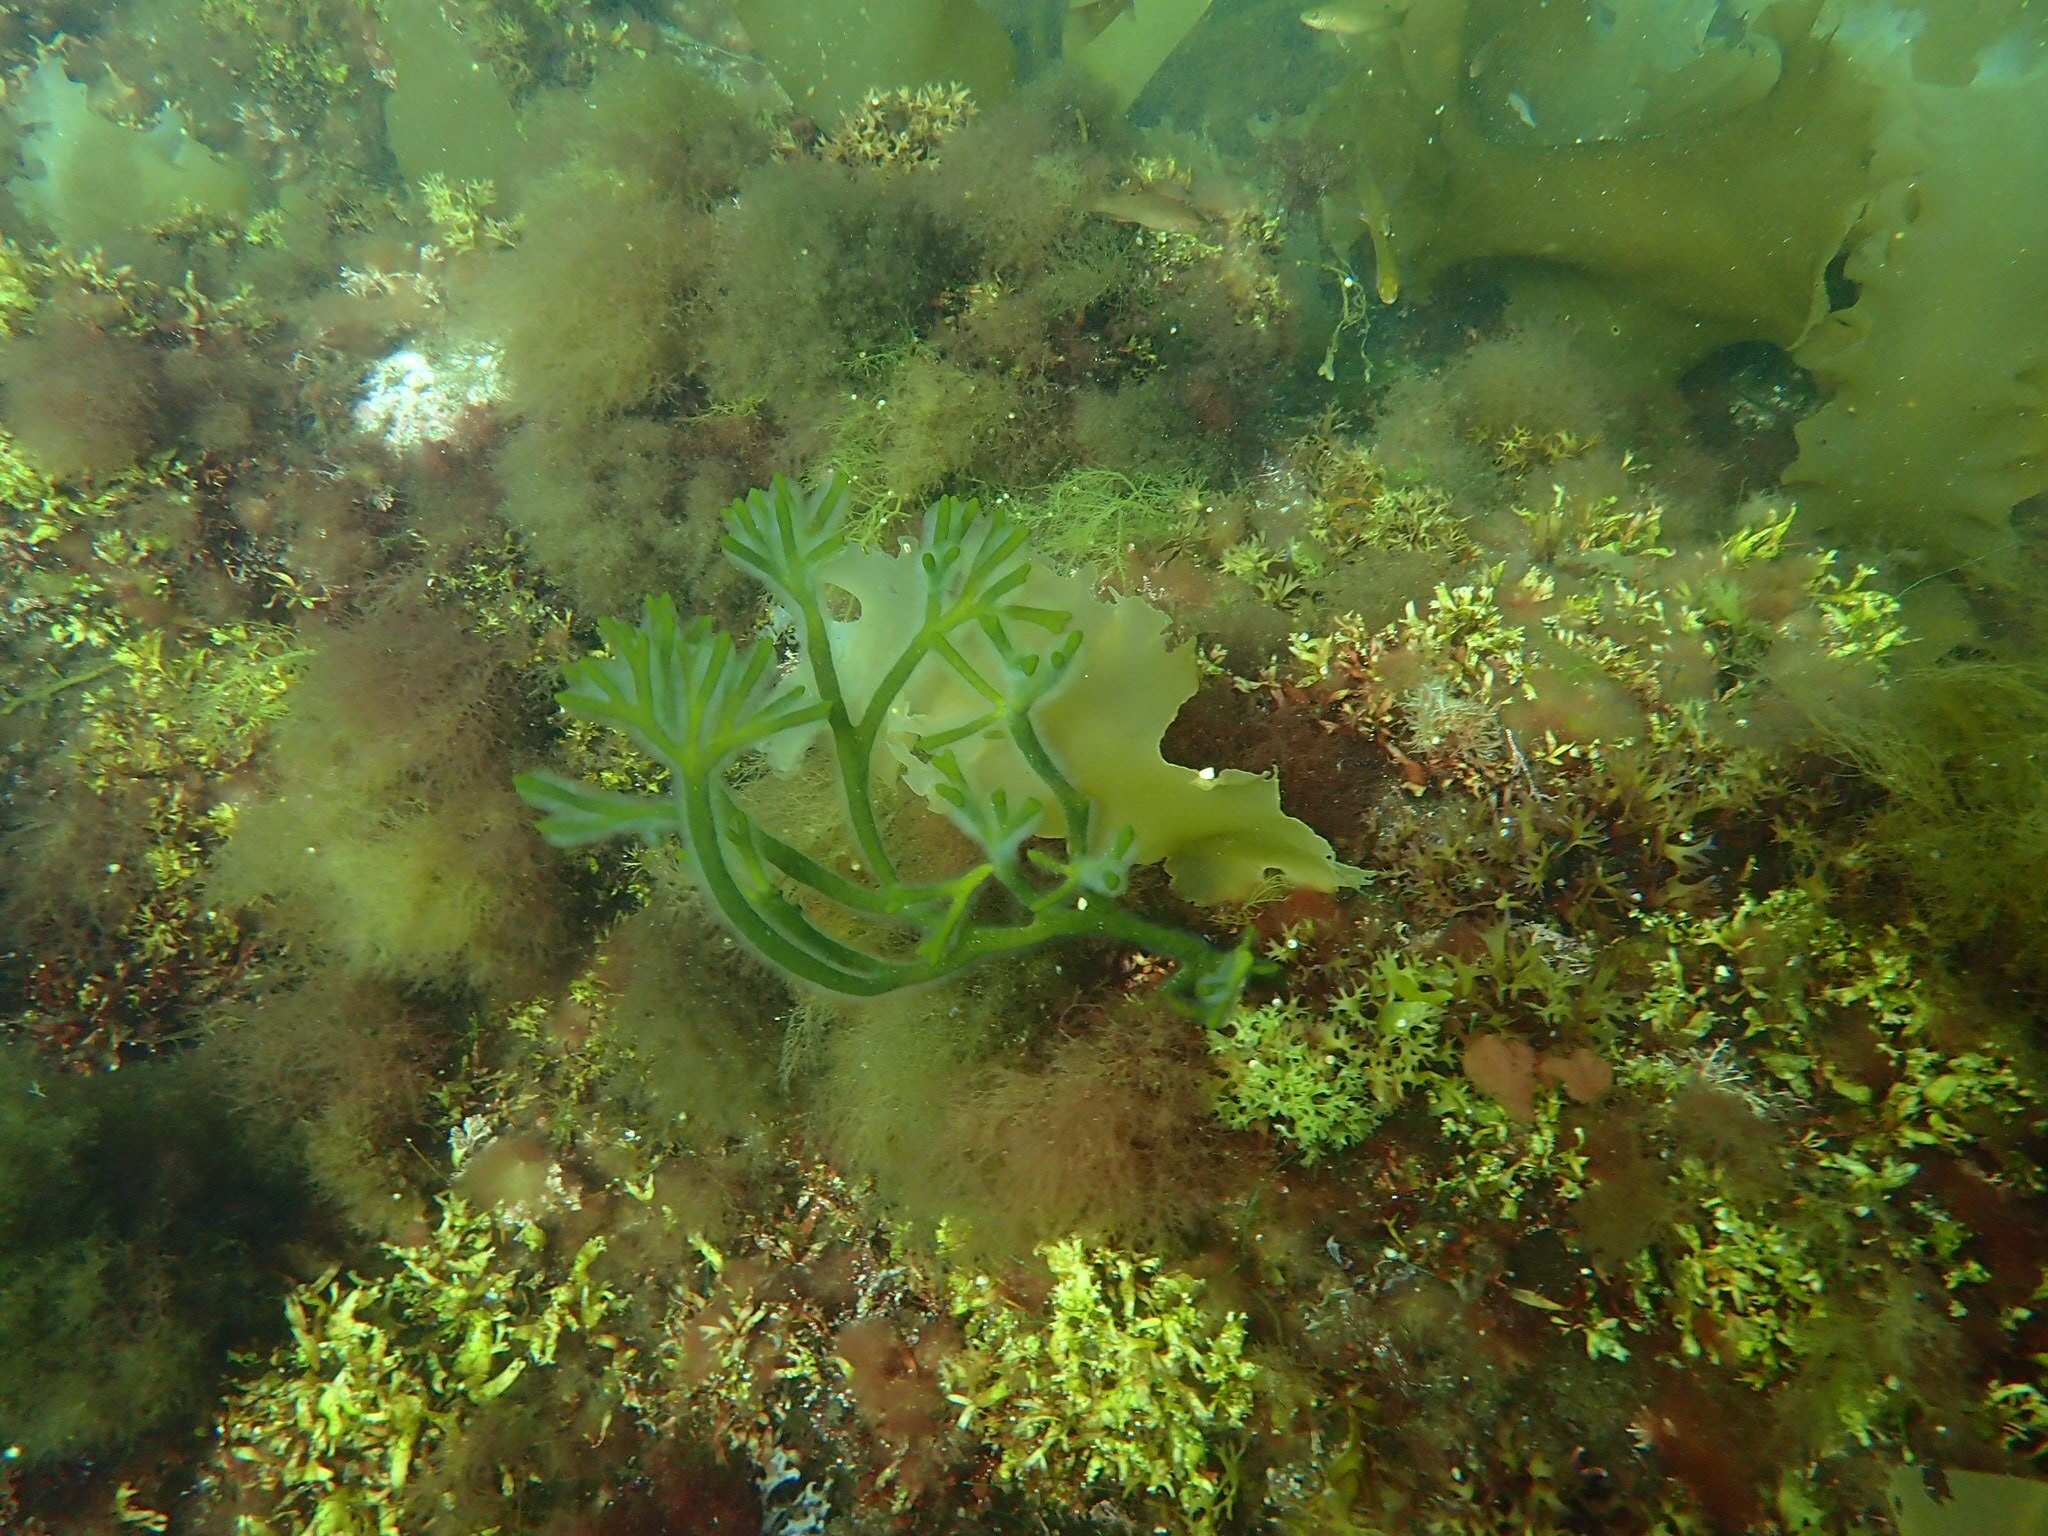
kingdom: Plantae
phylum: Chlorophyta
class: Ulvophyceae
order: Bryopsidales
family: Codiaceae
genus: Codium
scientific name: Codium fragile
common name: Dead man's fingers
